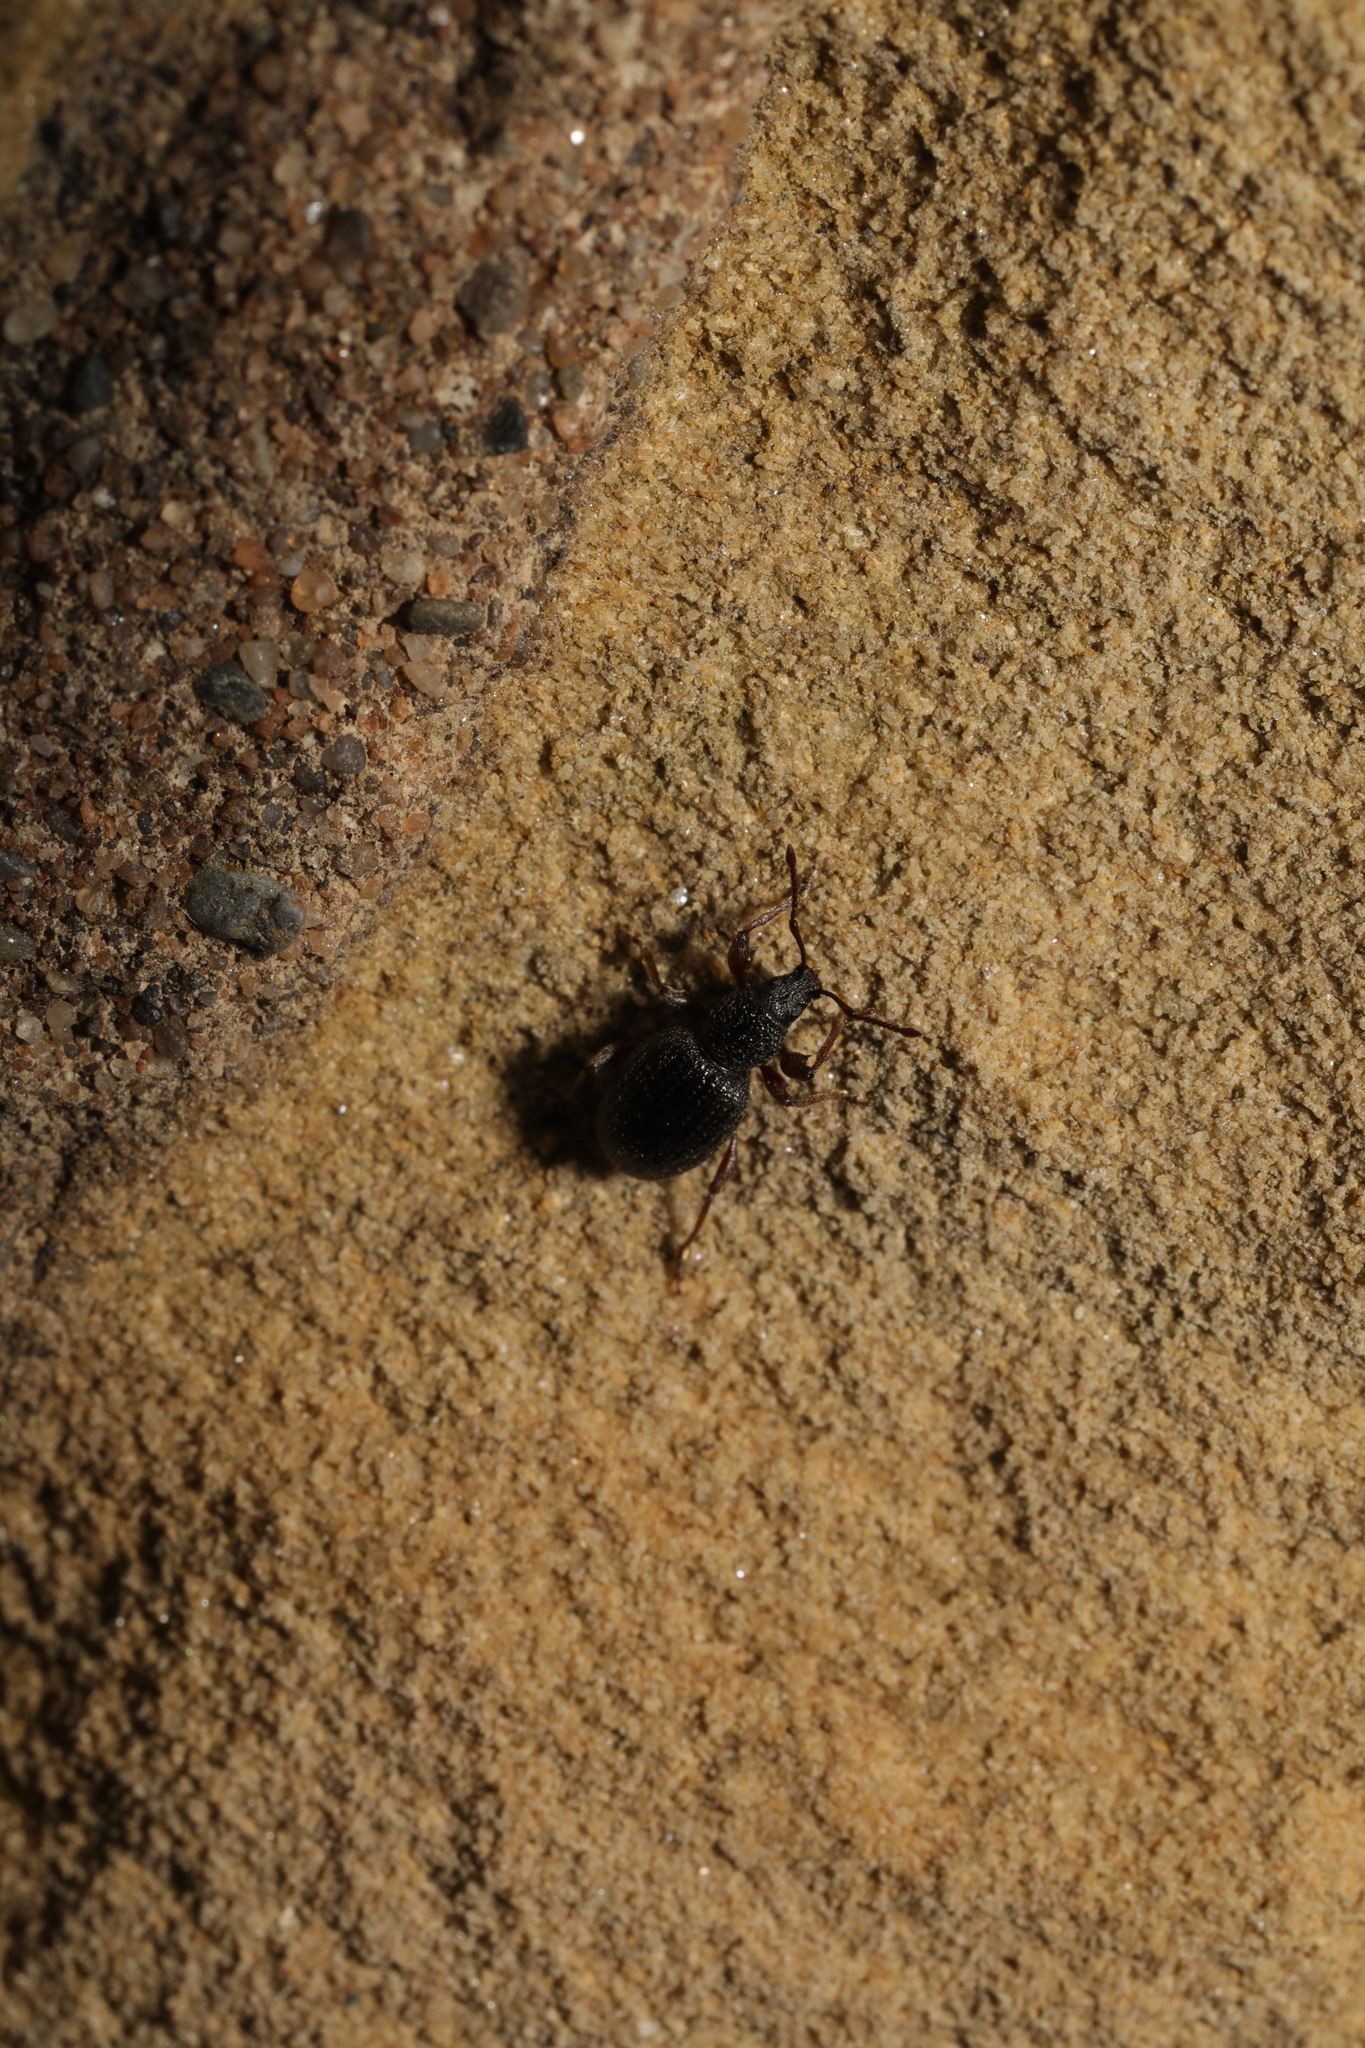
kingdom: Animalia
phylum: Arthropoda
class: Insecta
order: Coleoptera
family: Curculionidae
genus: Otiorhynchus
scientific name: Otiorhynchus ovatus
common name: Strawberry root weevil
